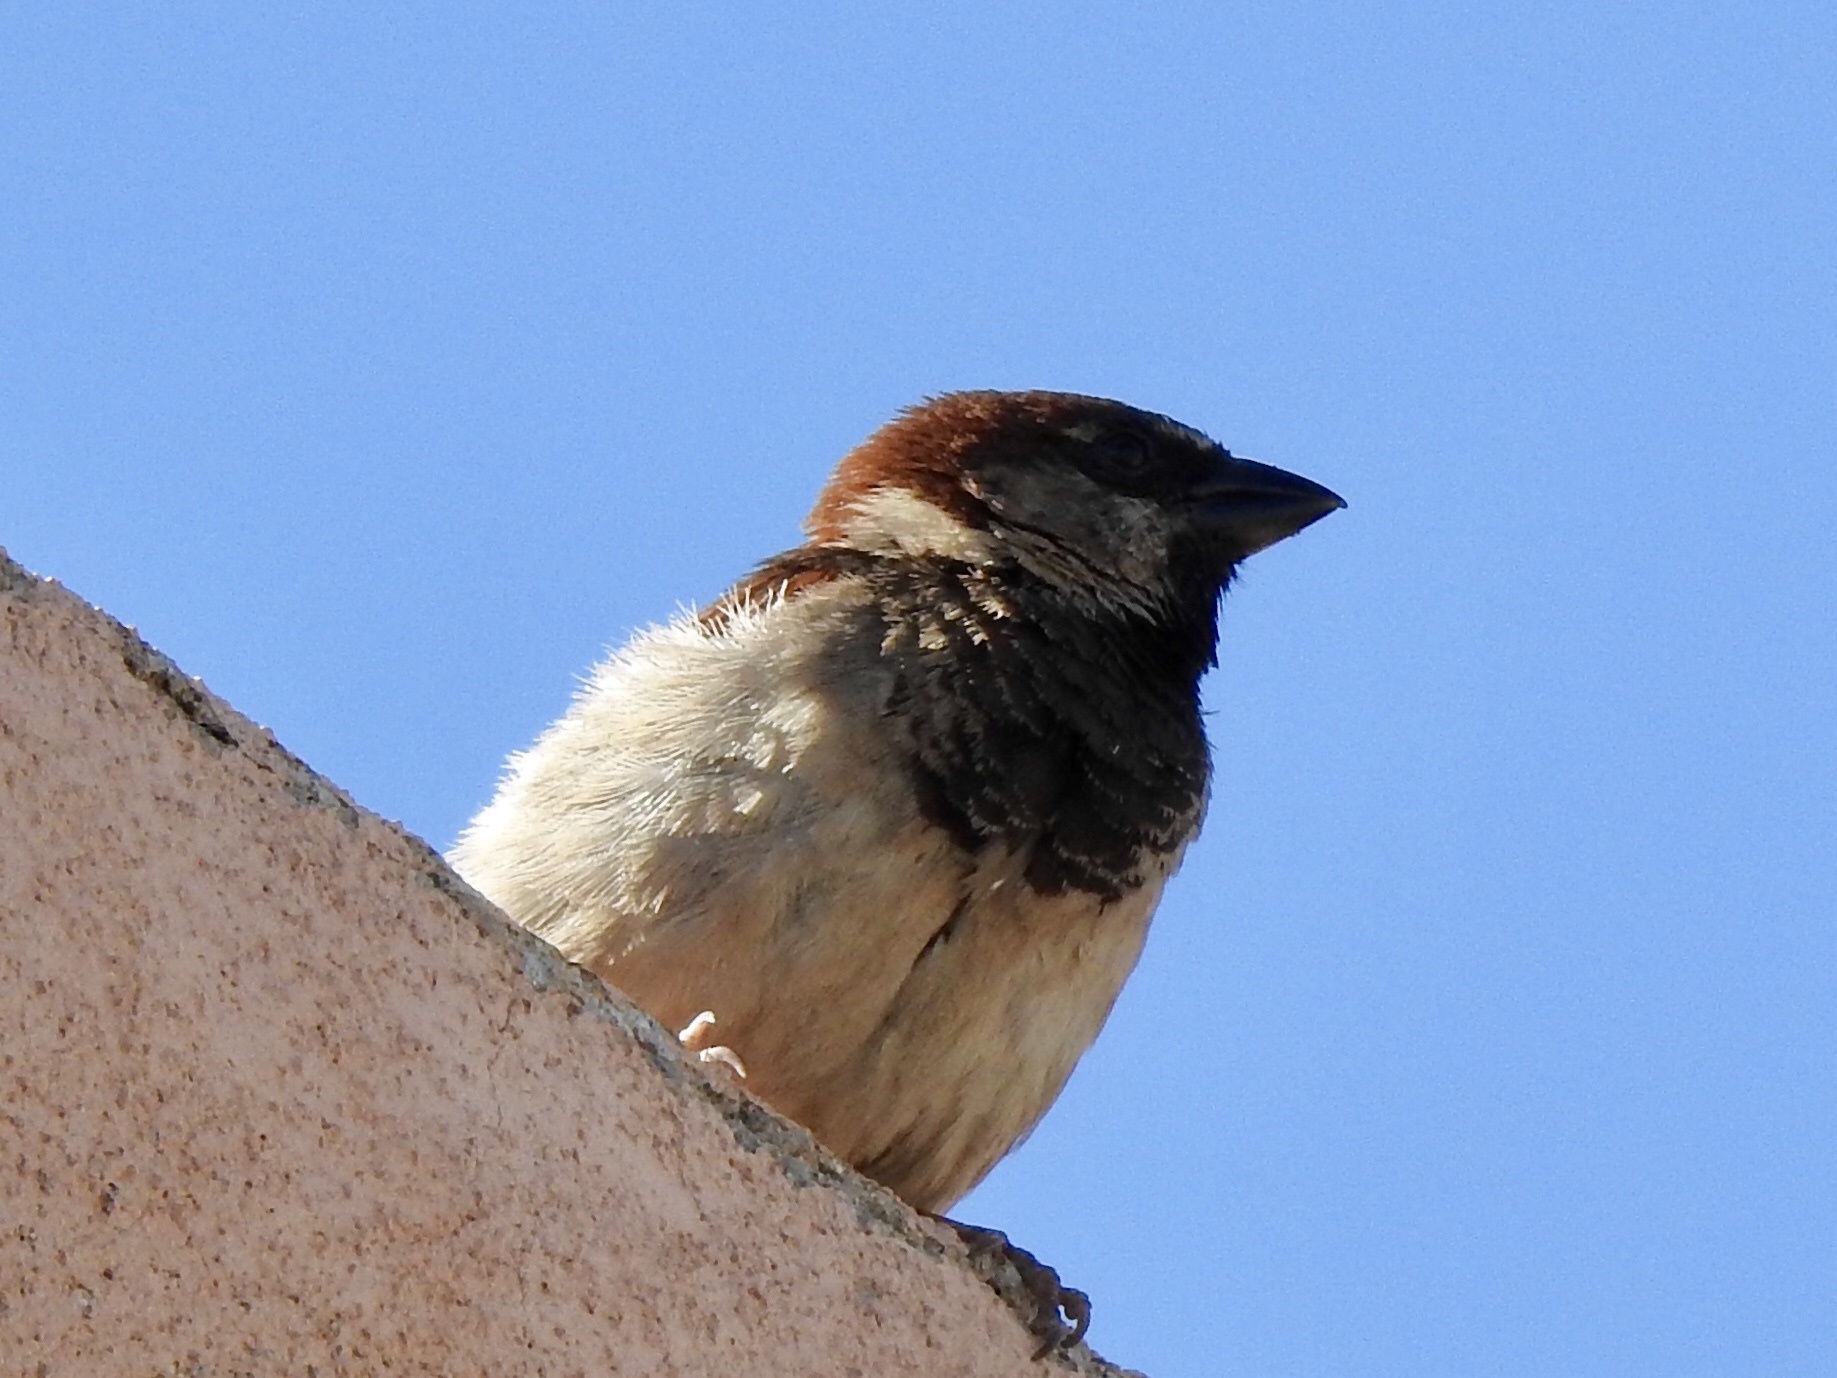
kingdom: Animalia
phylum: Chordata
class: Aves
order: Passeriformes
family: Passeridae
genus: Passer
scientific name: Passer domesticus
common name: House sparrow
